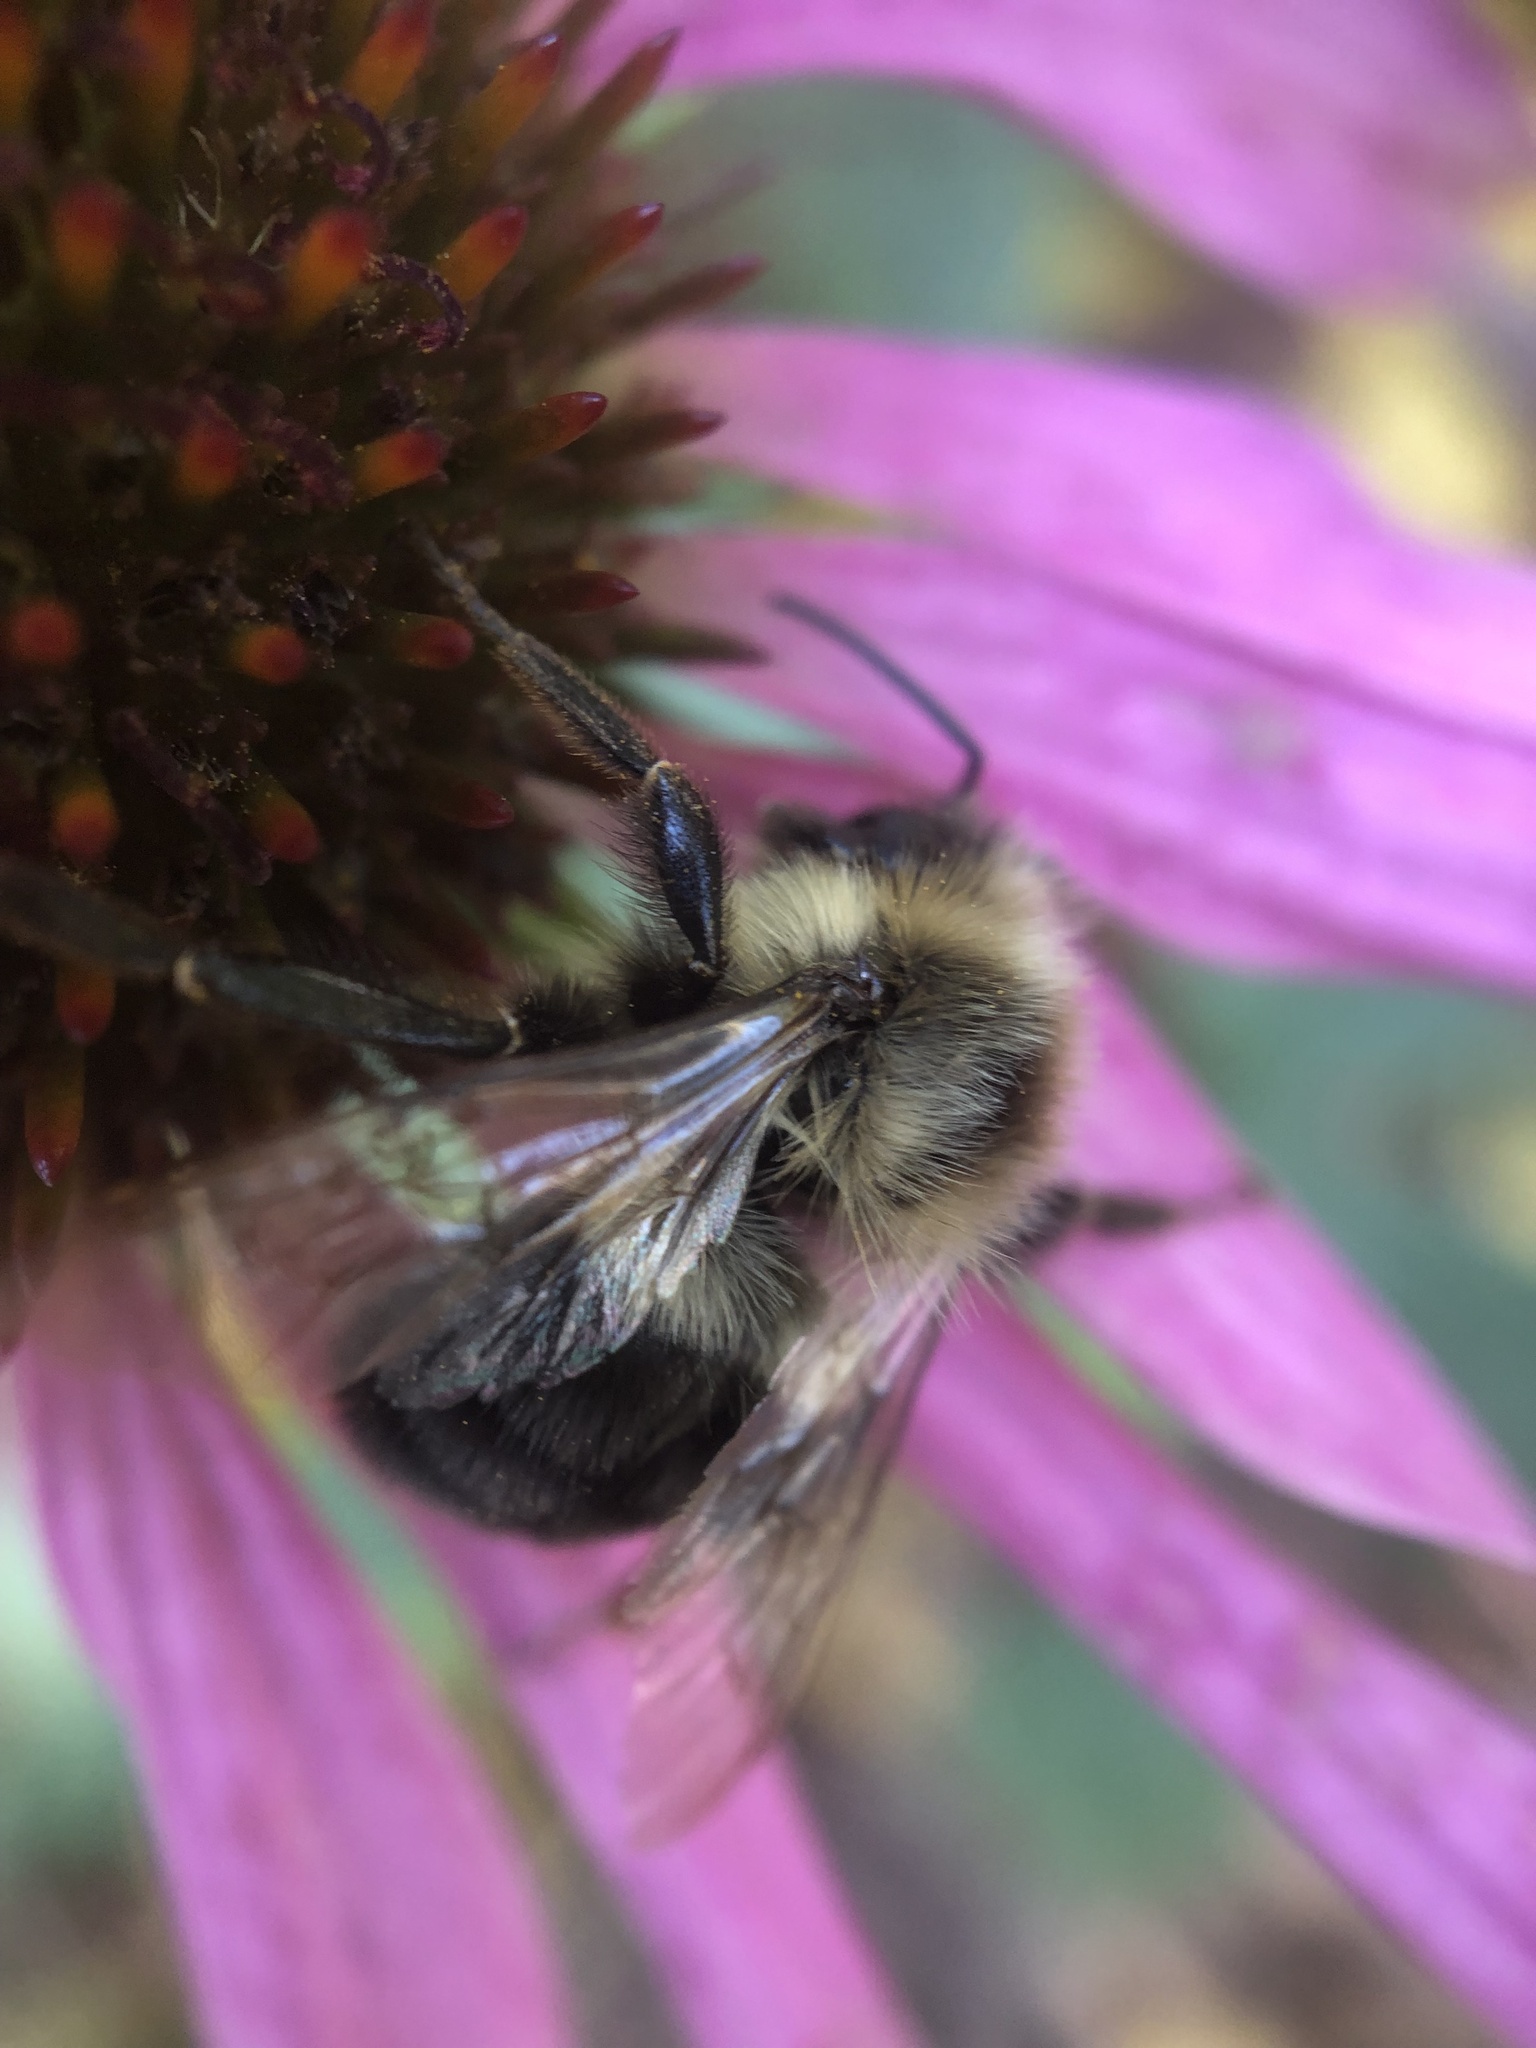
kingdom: Animalia
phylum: Arthropoda
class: Insecta
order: Hymenoptera
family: Apidae
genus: Bombus
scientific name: Bombus impatiens
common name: Common eastern bumble bee
